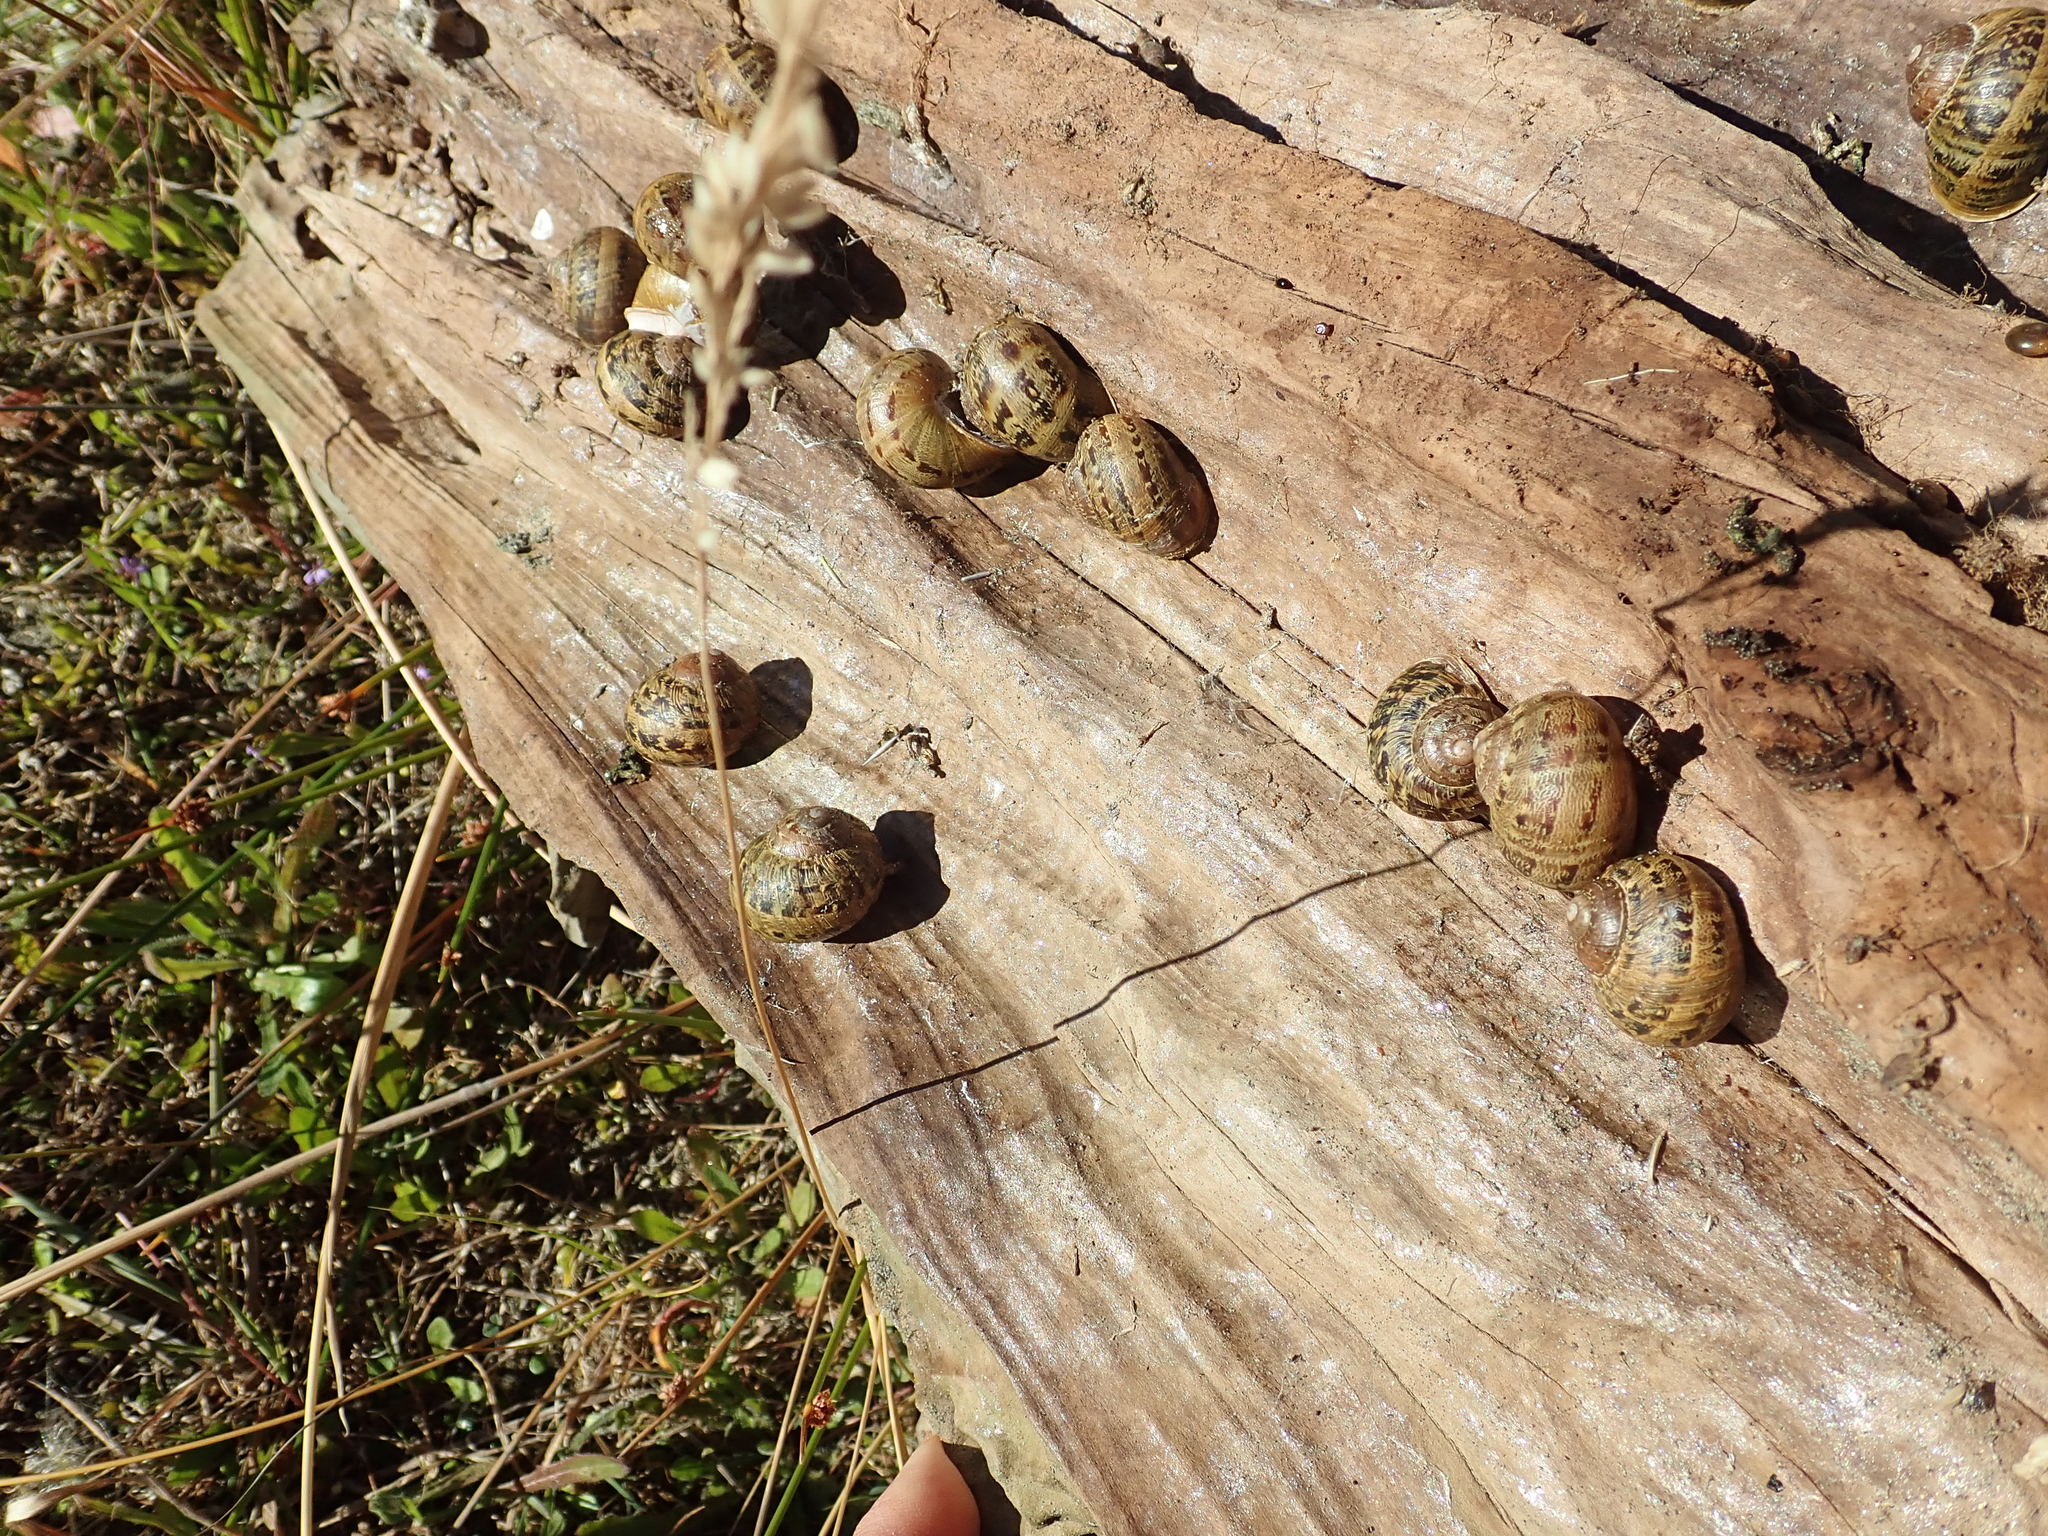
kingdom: Animalia
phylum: Mollusca
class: Gastropoda
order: Stylommatophora
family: Helicidae
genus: Cornu
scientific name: Cornu aspersum
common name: Brown garden snail
